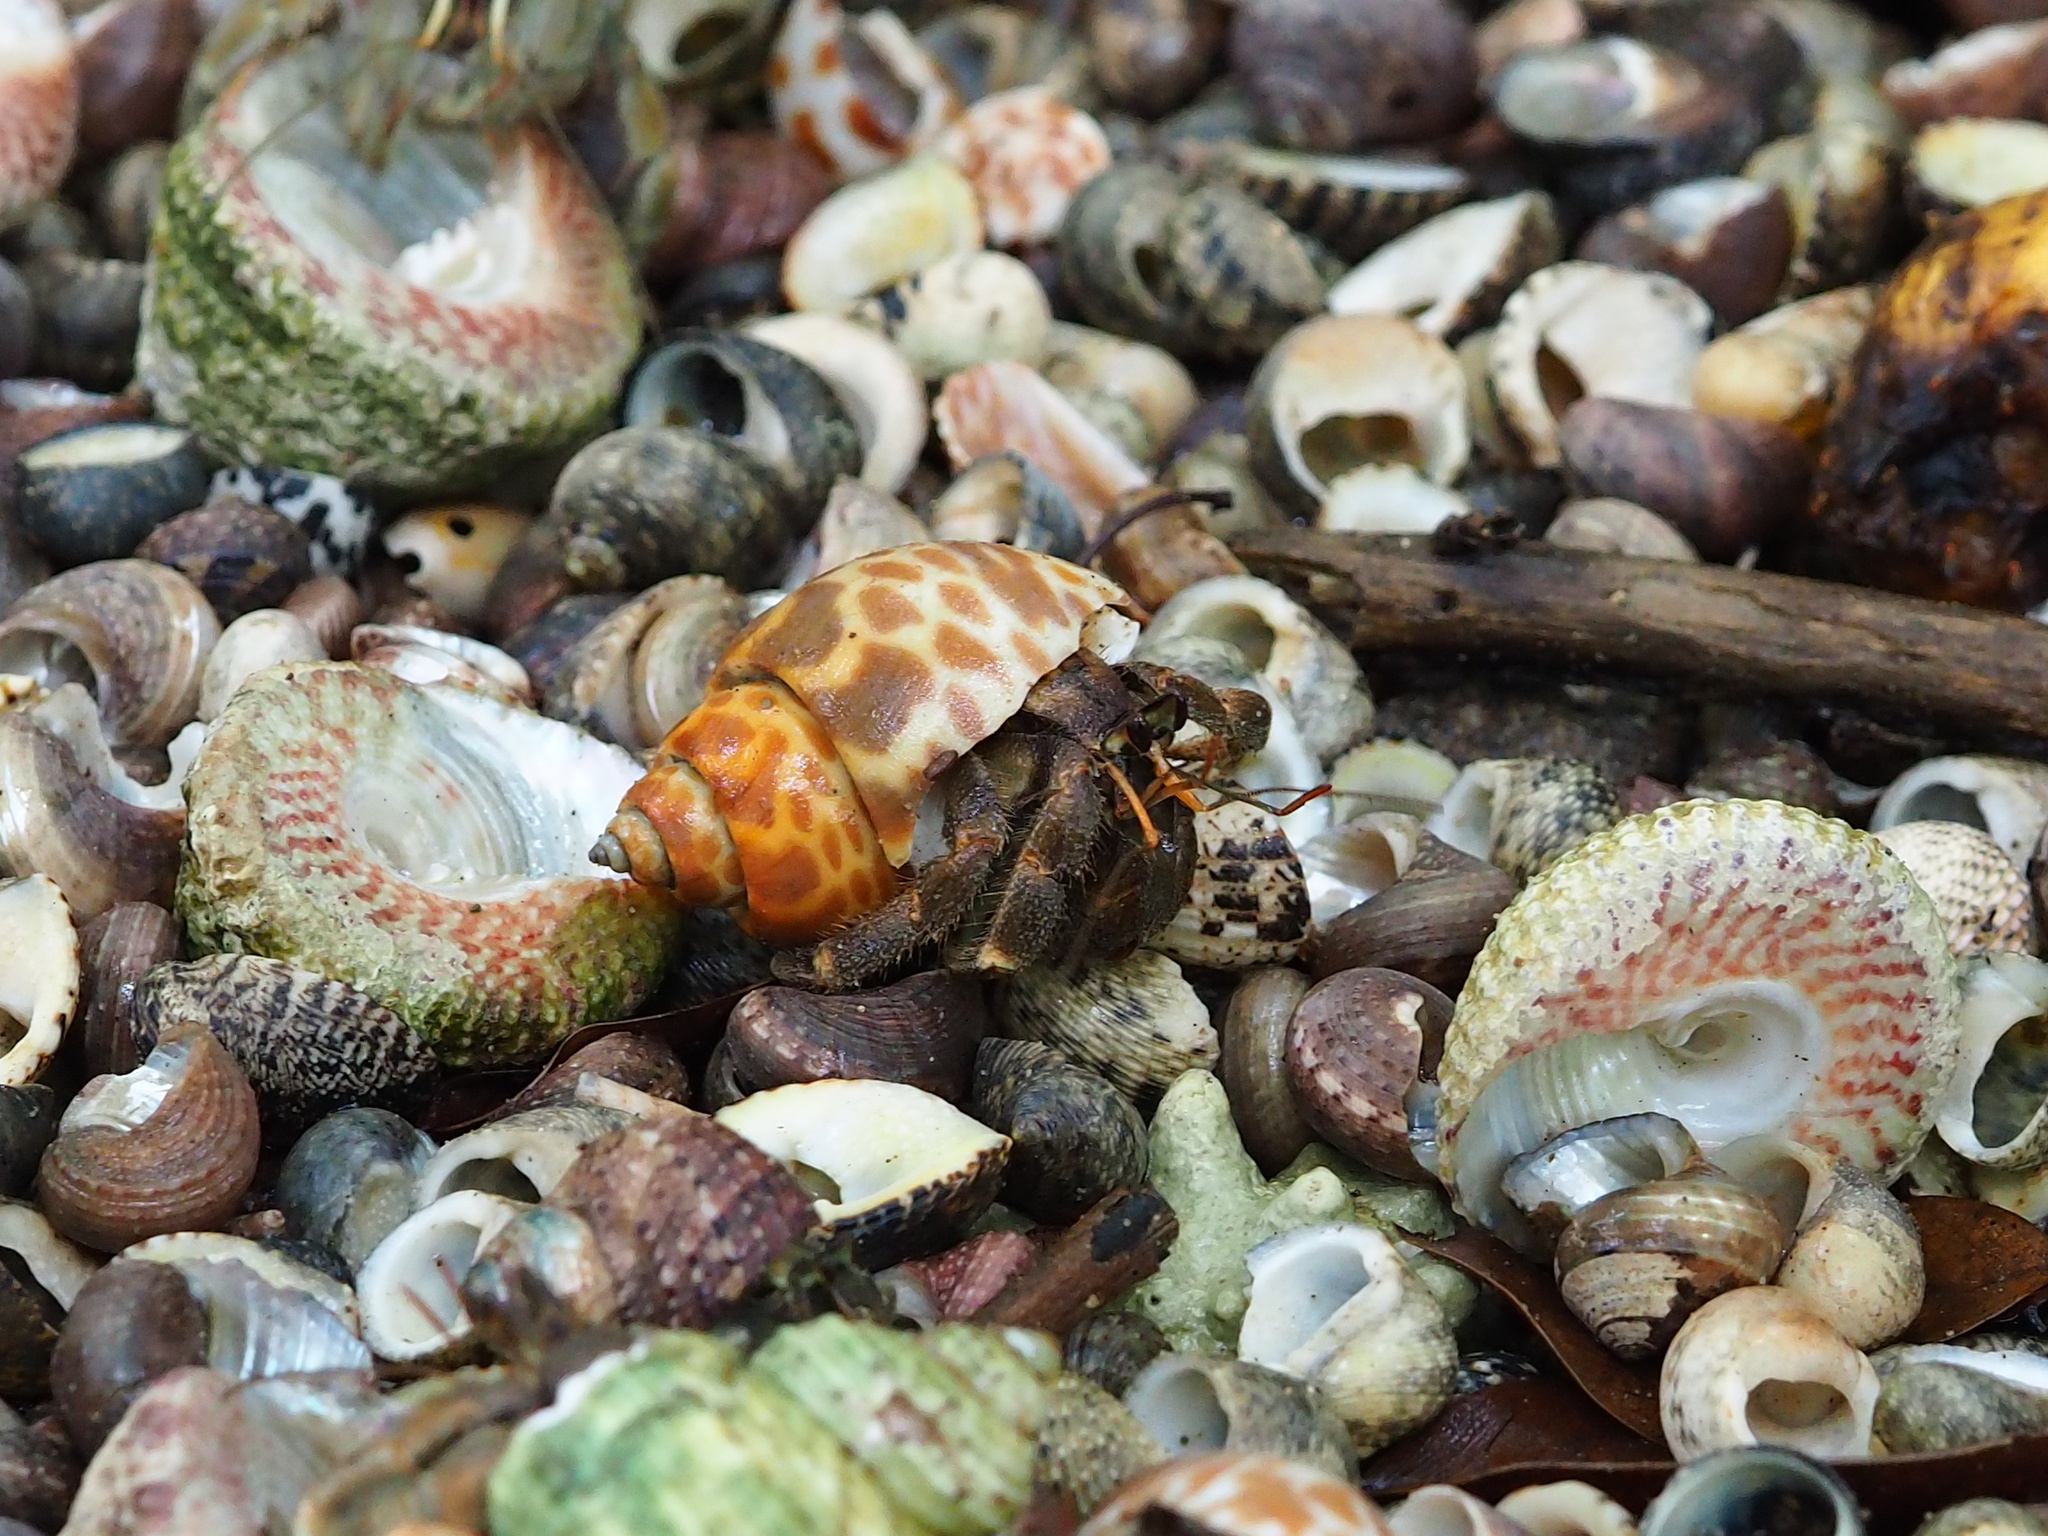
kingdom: Animalia
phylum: Arthropoda
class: Malacostraca
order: Decapoda
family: Coenobitidae
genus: Coenobita
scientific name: Coenobita rugosus
